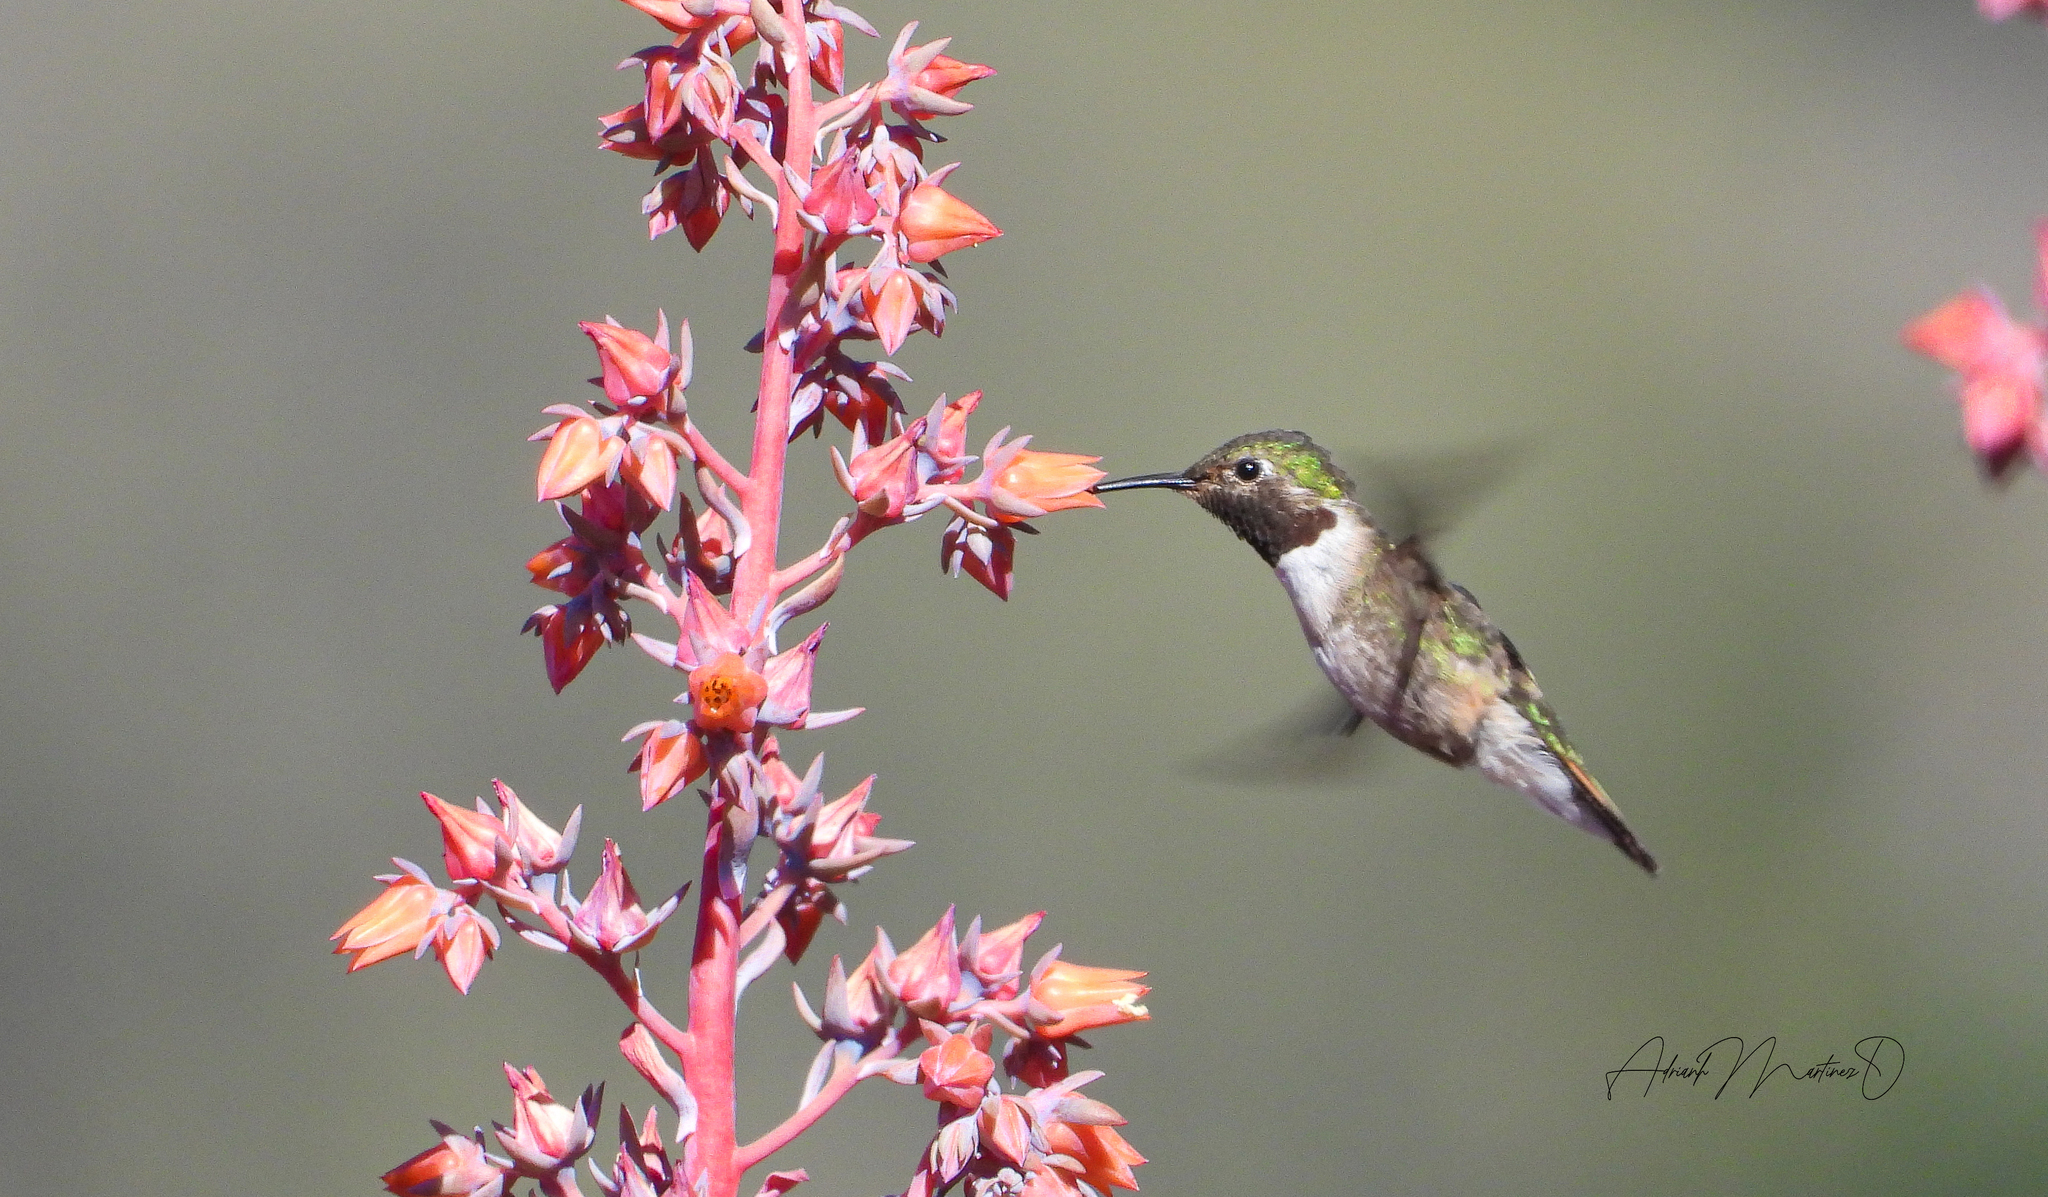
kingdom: Animalia
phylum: Chordata
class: Aves
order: Apodiformes
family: Trochilidae
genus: Selasphorus
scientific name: Selasphorus platycercus
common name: Broad-tailed hummingbird
